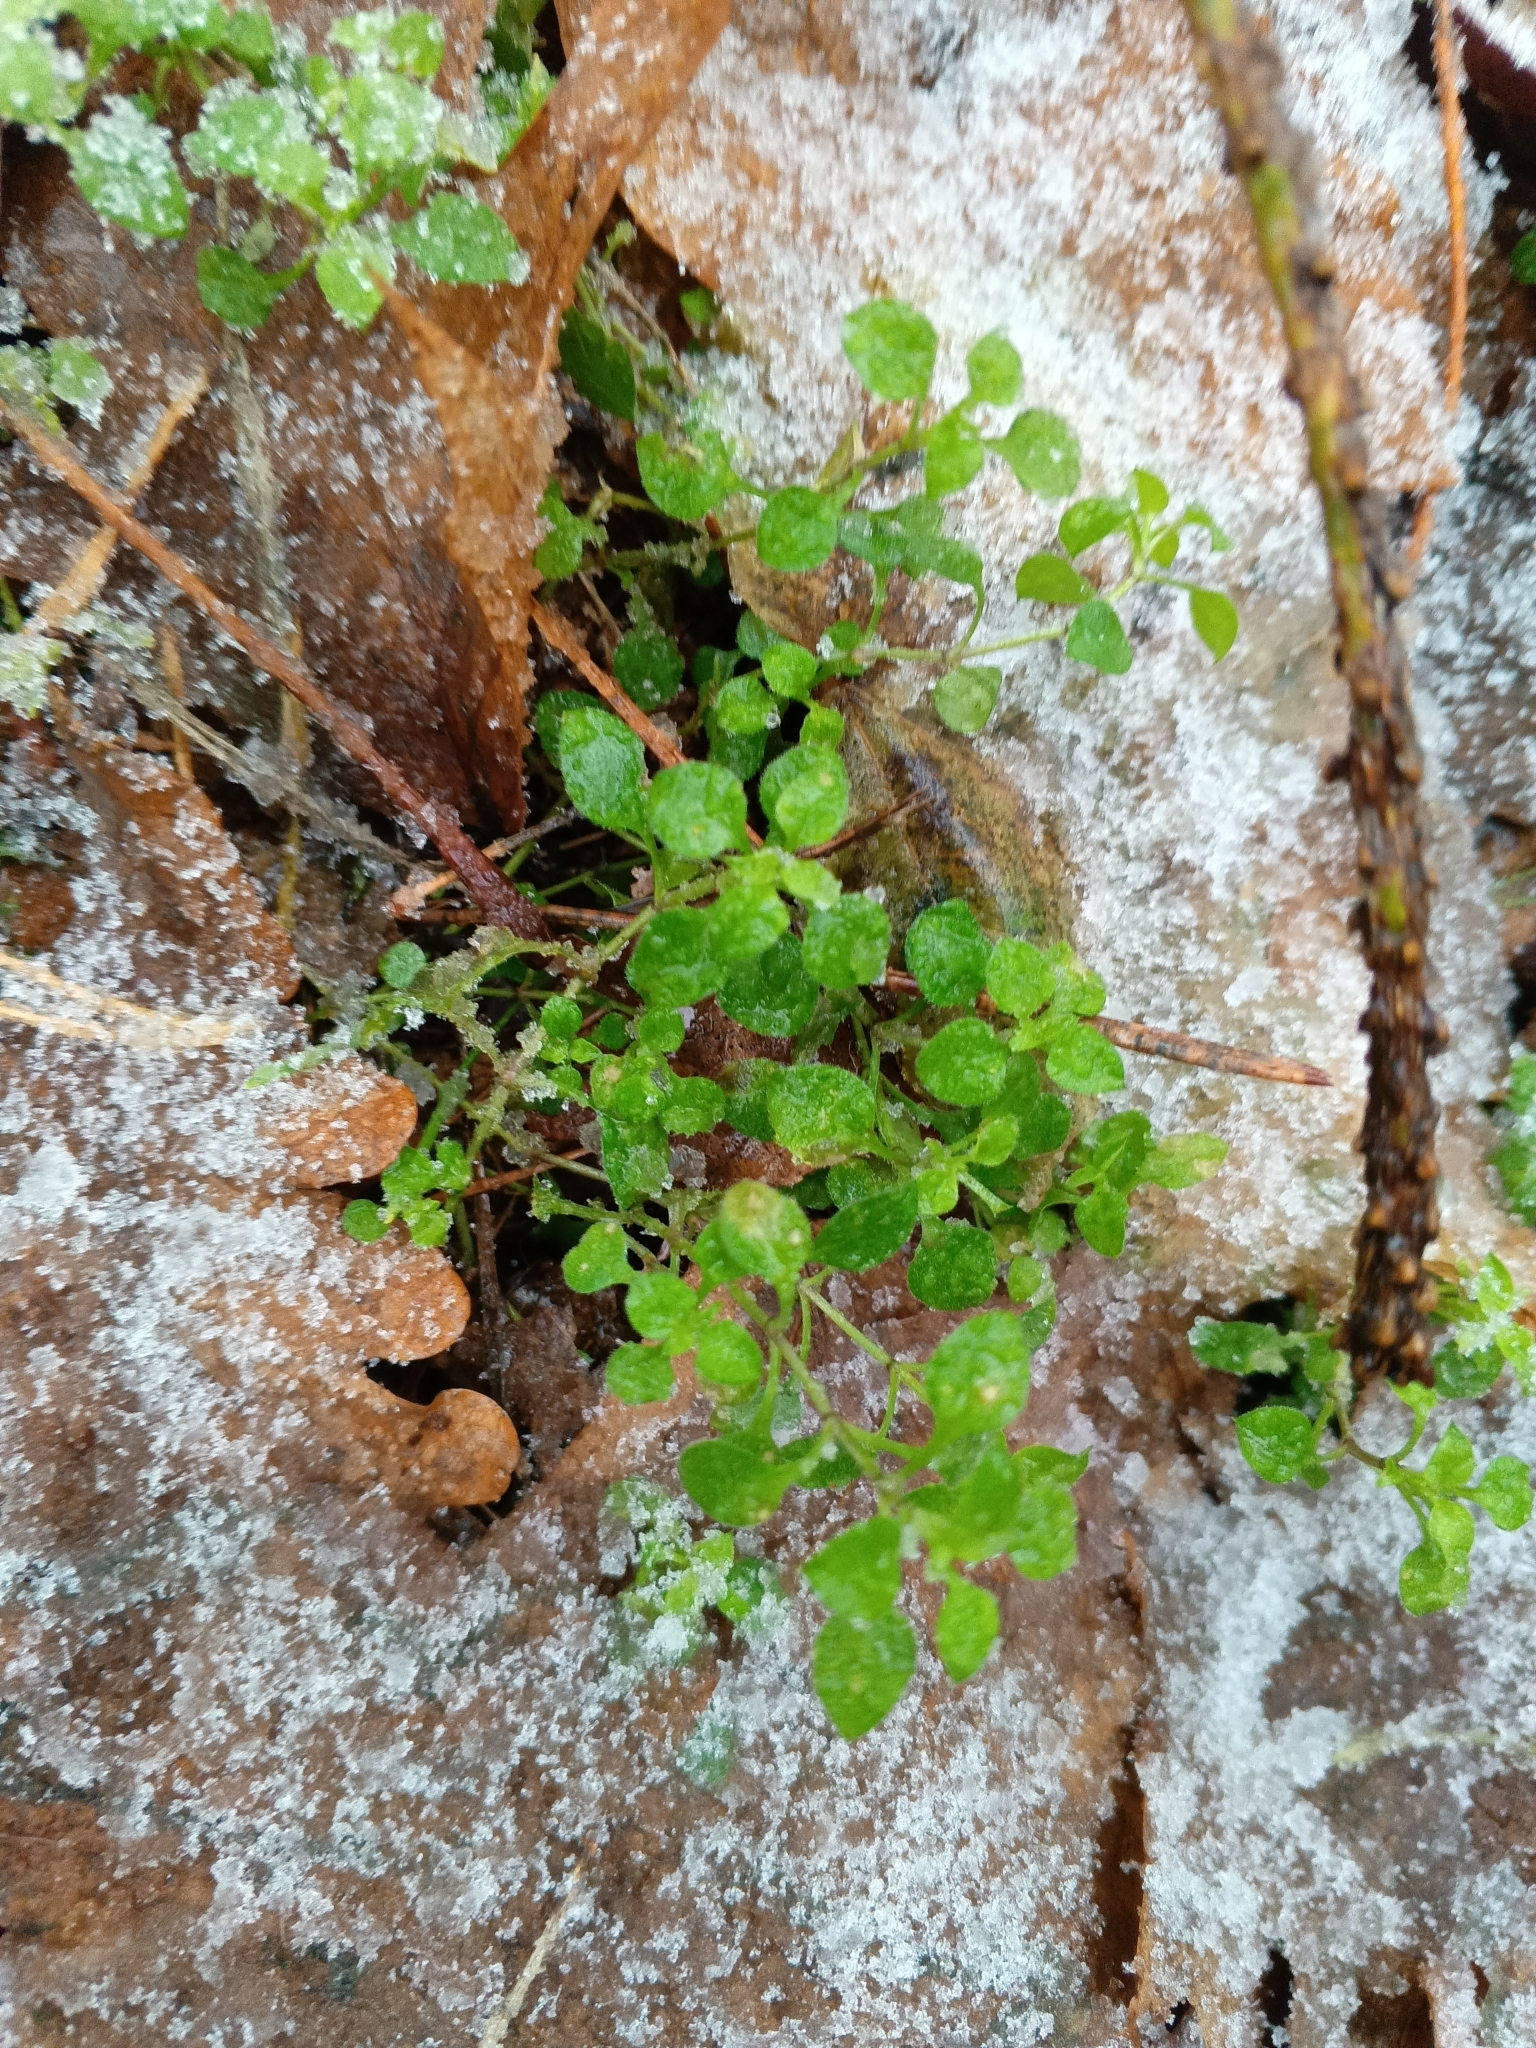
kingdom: Plantae
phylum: Tracheophyta
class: Magnoliopsida
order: Caryophyllales
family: Caryophyllaceae
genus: Moehringia
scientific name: Moehringia trinervia
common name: Three-nerved sandwort
